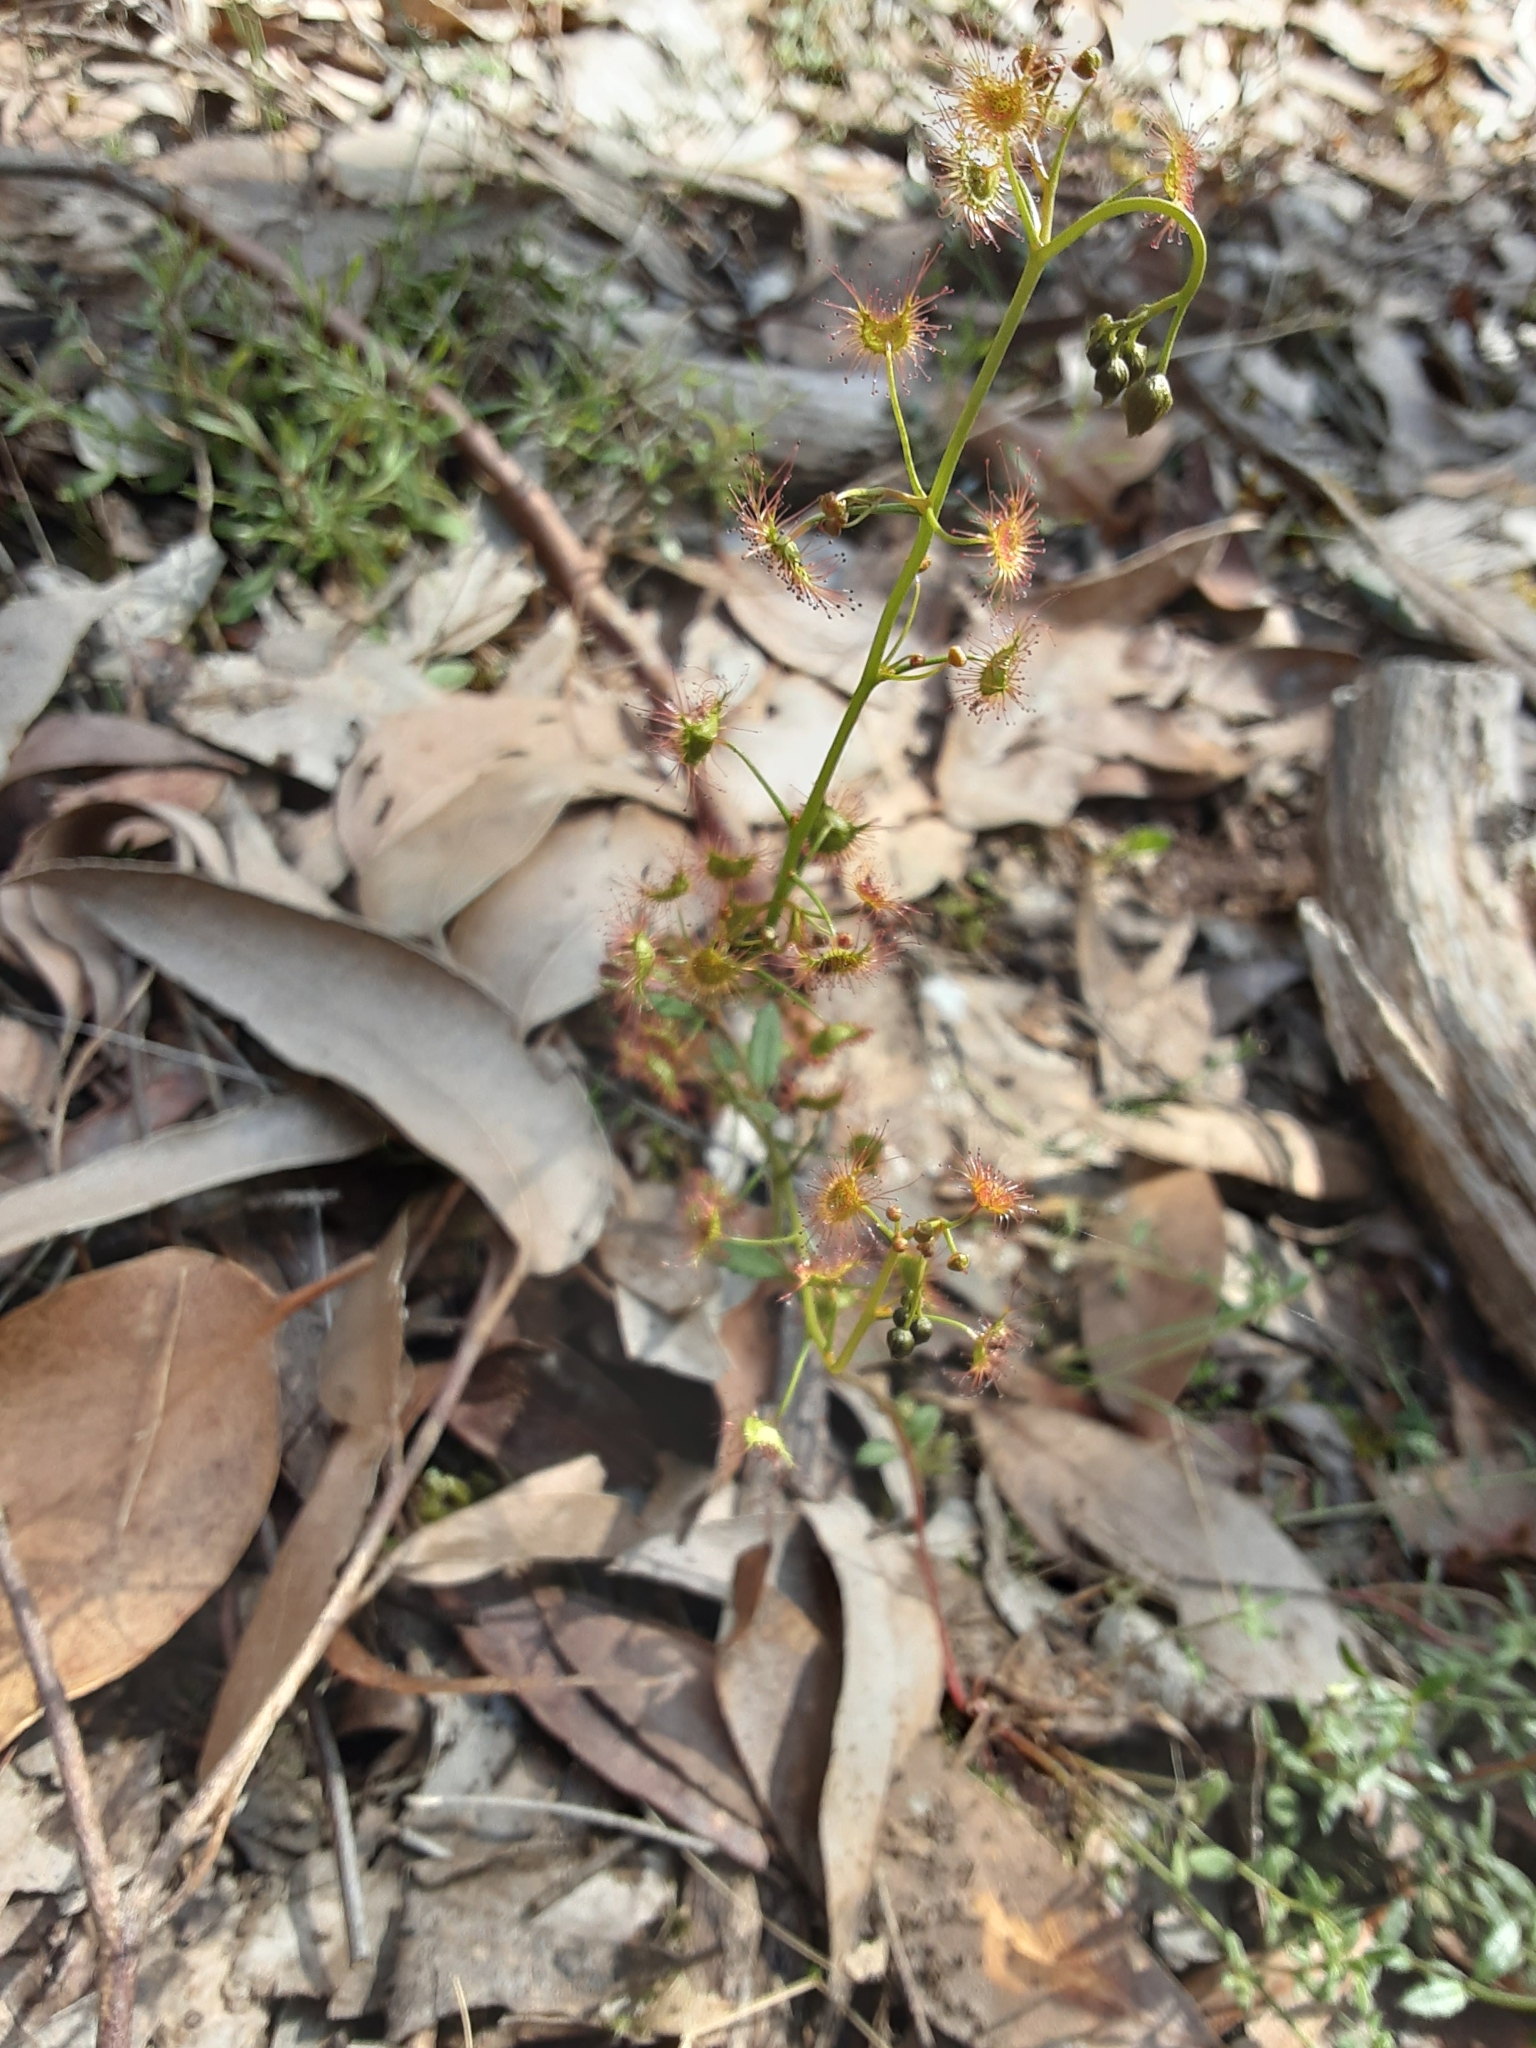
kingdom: Plantae
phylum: Tracheophyta
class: Magnoliopsida
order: Caryophyllales
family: Droseraceae
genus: Drosera
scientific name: Drosera peltata
